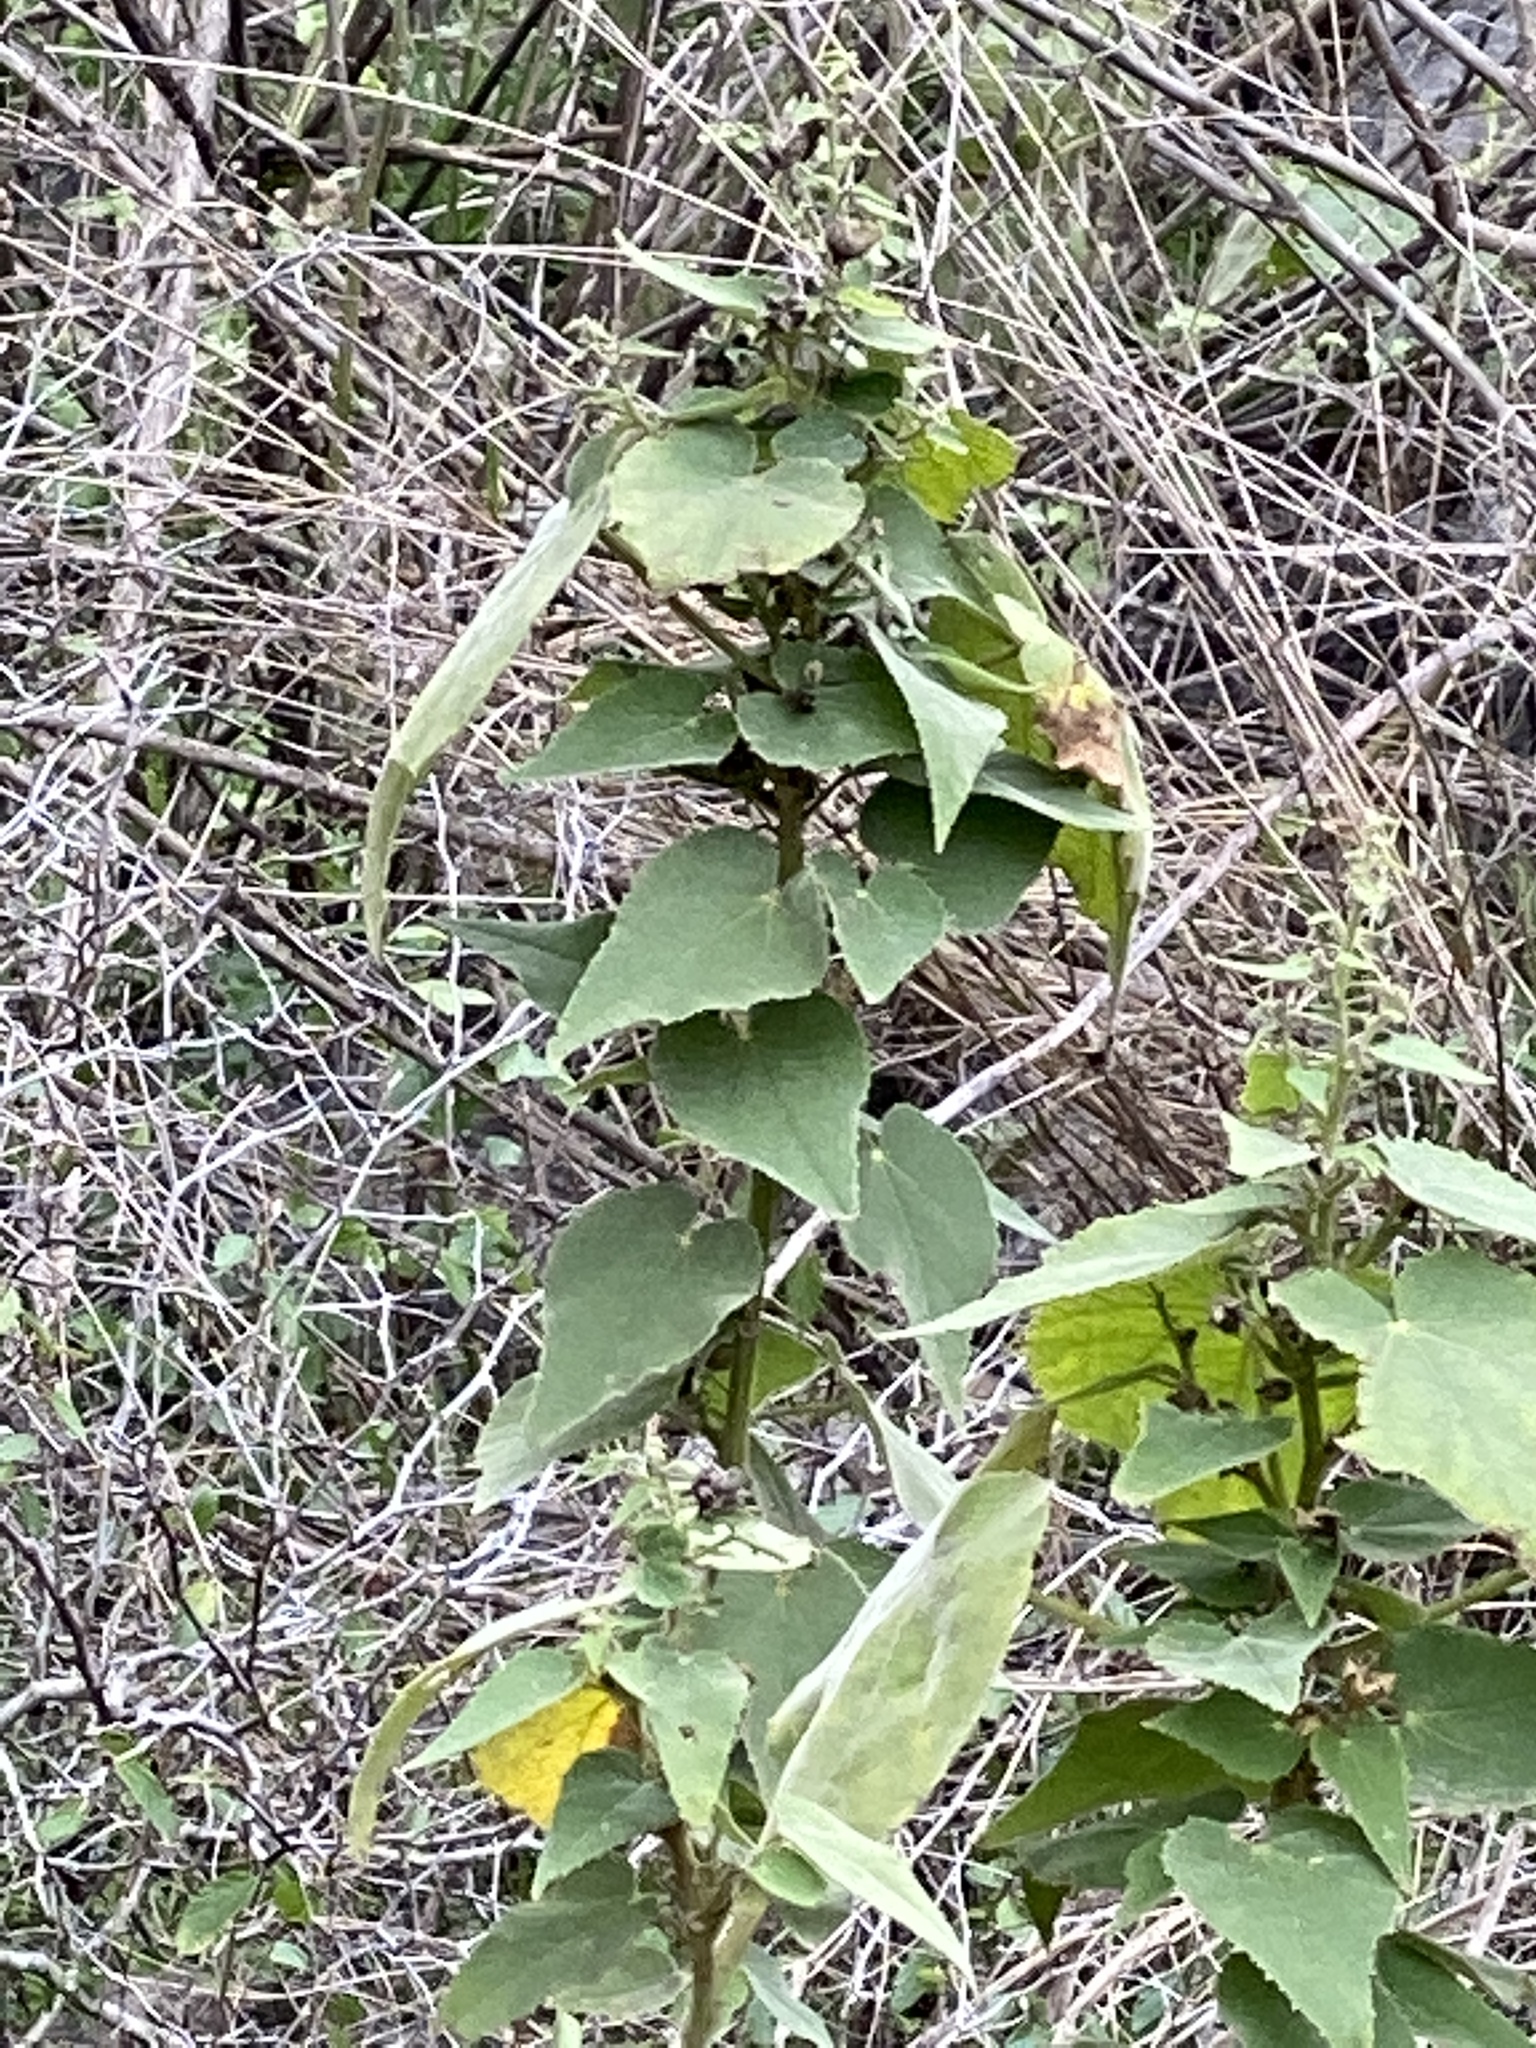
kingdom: Plantae
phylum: Tracheophyta
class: Magnoliopsida
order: Malvales
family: Malvaceae
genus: Allowissadula
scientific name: Allowissadula holosericea
